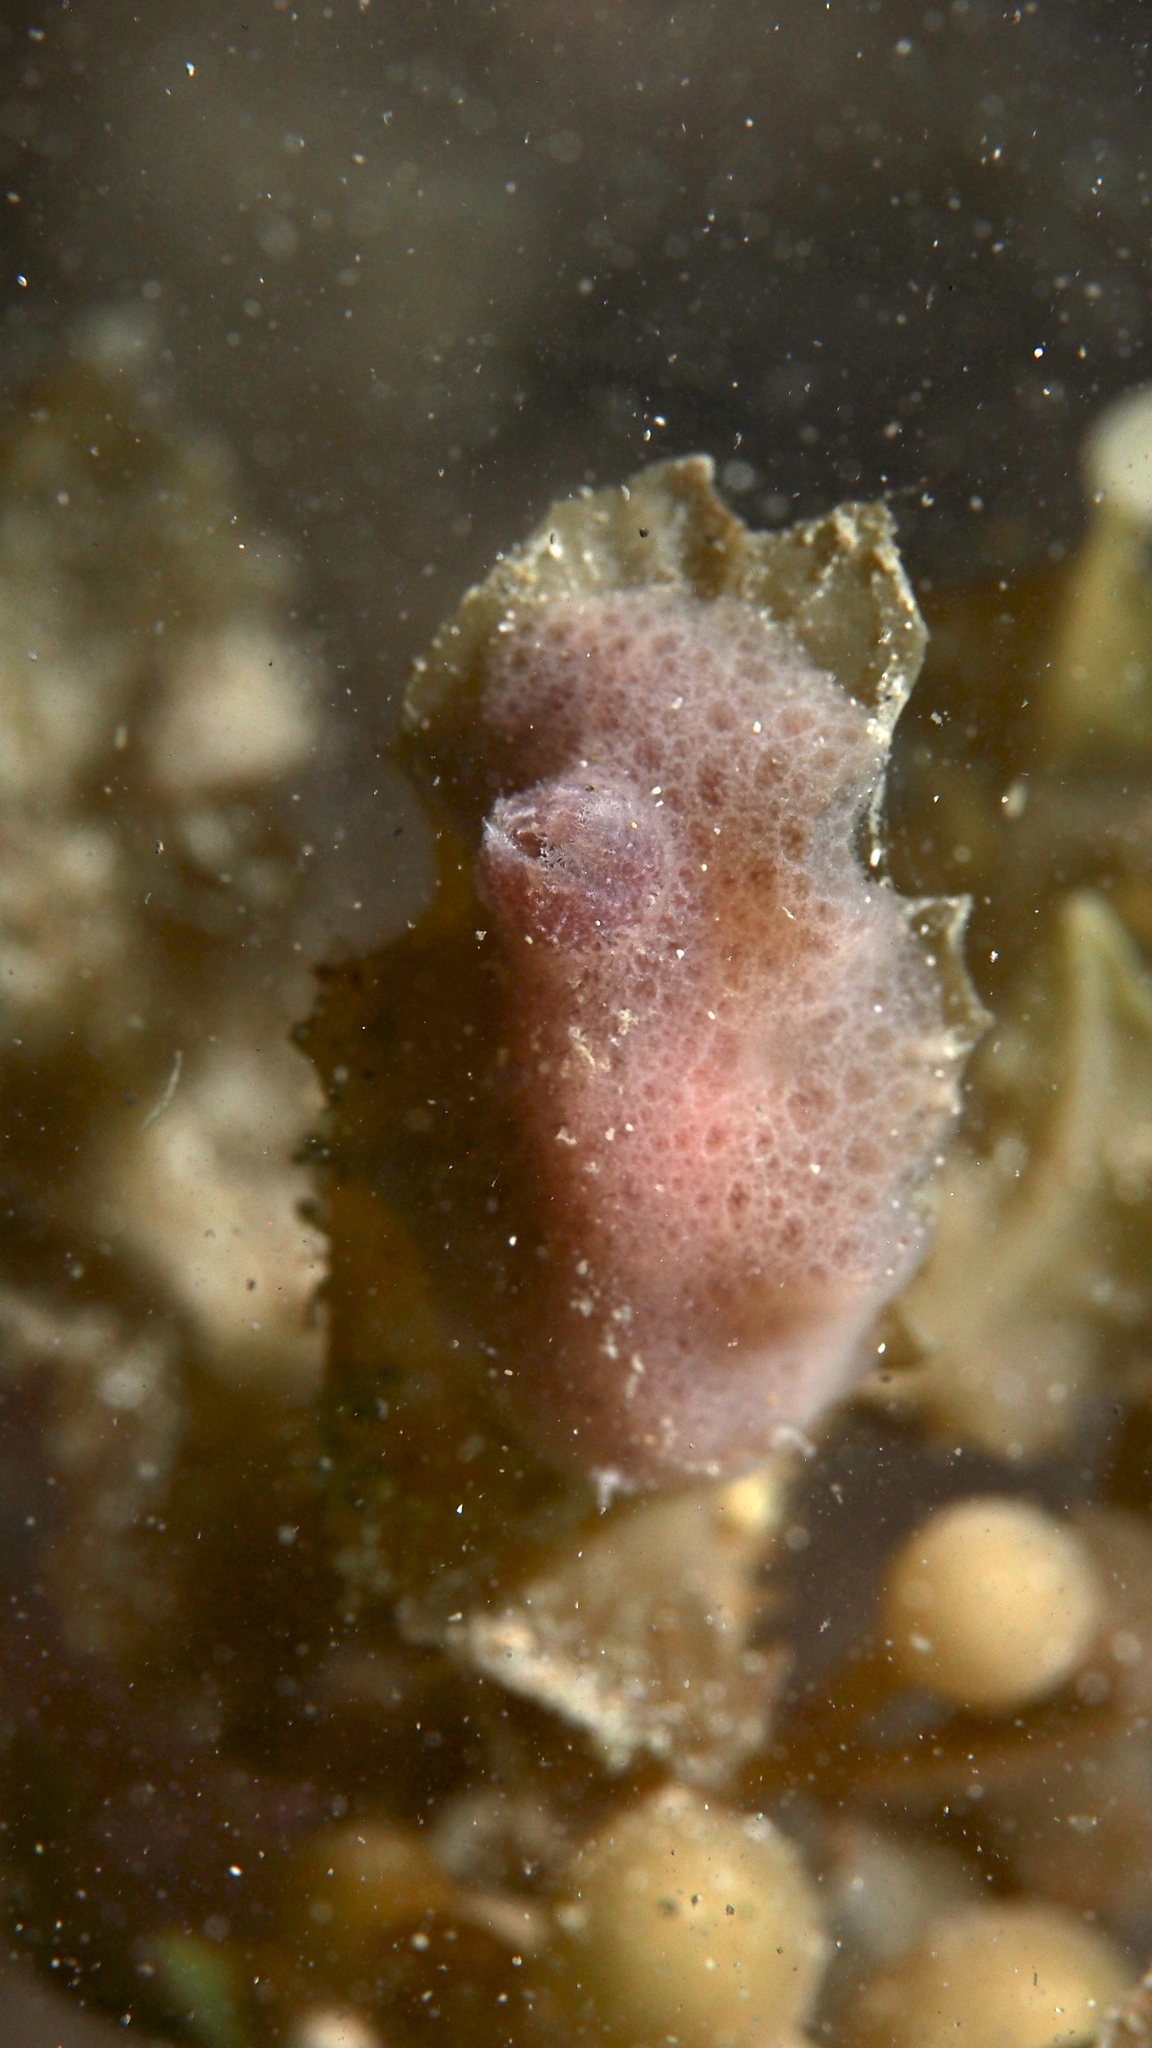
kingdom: Animalia
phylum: Mollusca
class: Gastropoda
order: Nudibranchia
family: Discodorididae
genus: Jorunna
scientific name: Jorunna hartleyi
